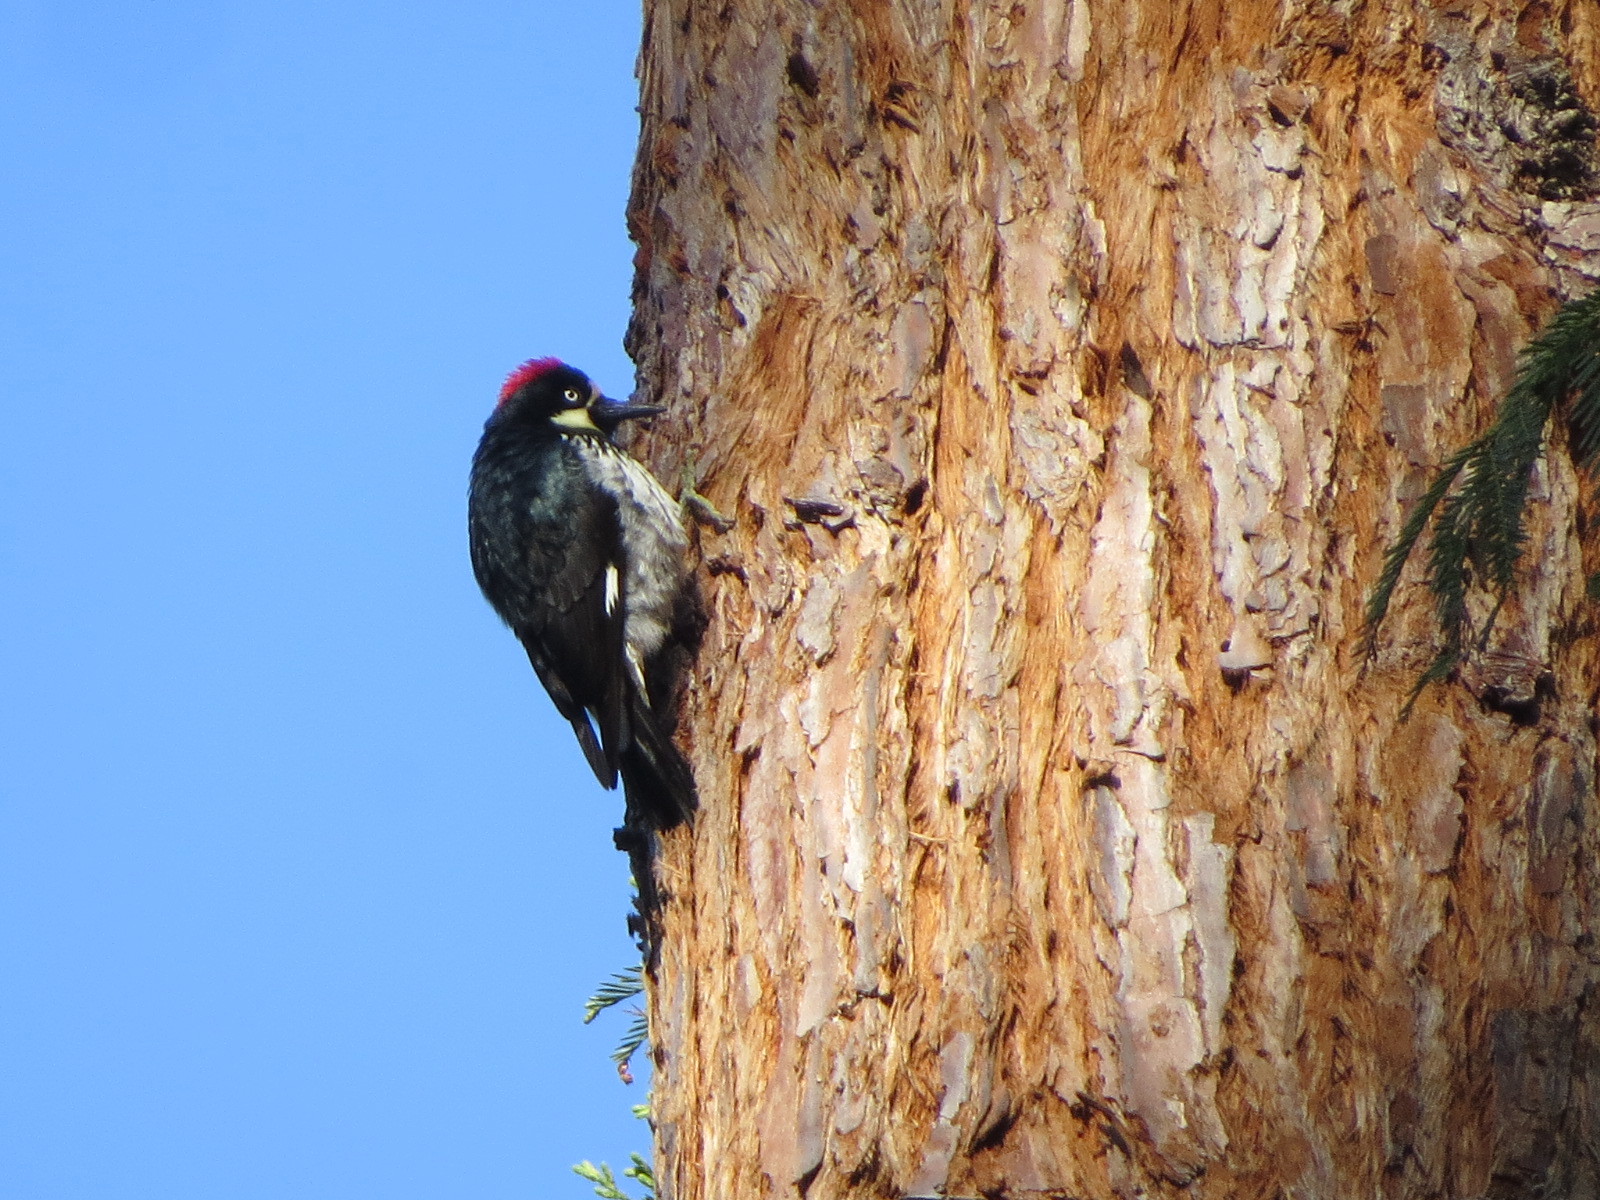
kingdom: Animalia
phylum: Chordata
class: Aves
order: Piciformes
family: Picidae
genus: Melanerpes
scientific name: Melanerpes formicivorus
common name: Acorn woodpecker
